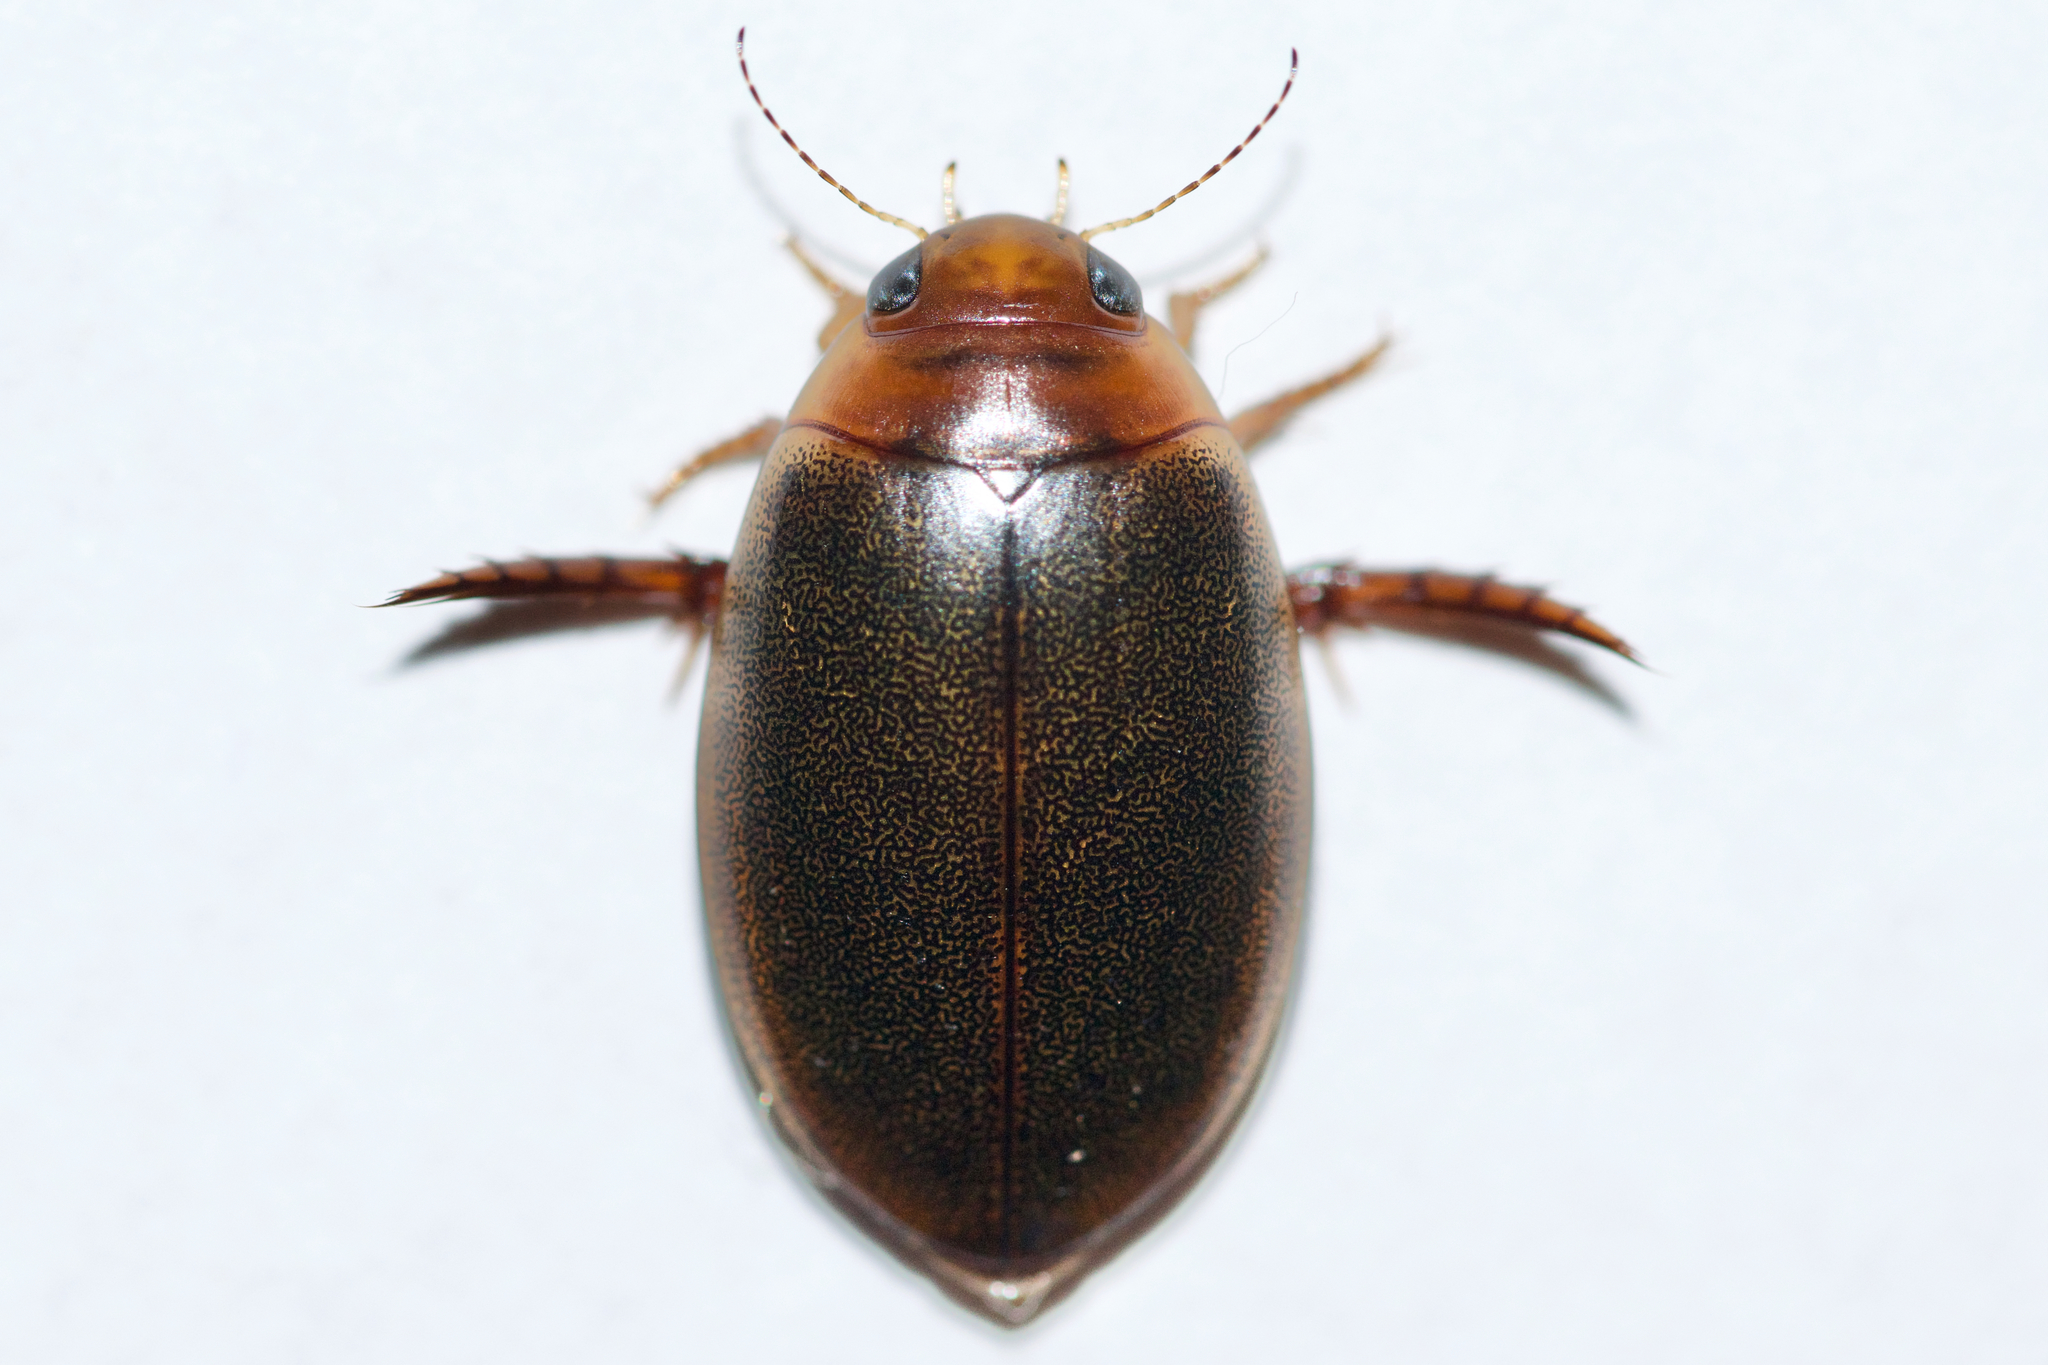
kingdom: Animalia
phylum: Arthropoda
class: Insecta
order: Coleoptera
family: Dytiscidae
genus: Graphoderus
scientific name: Graphoderus liberus
